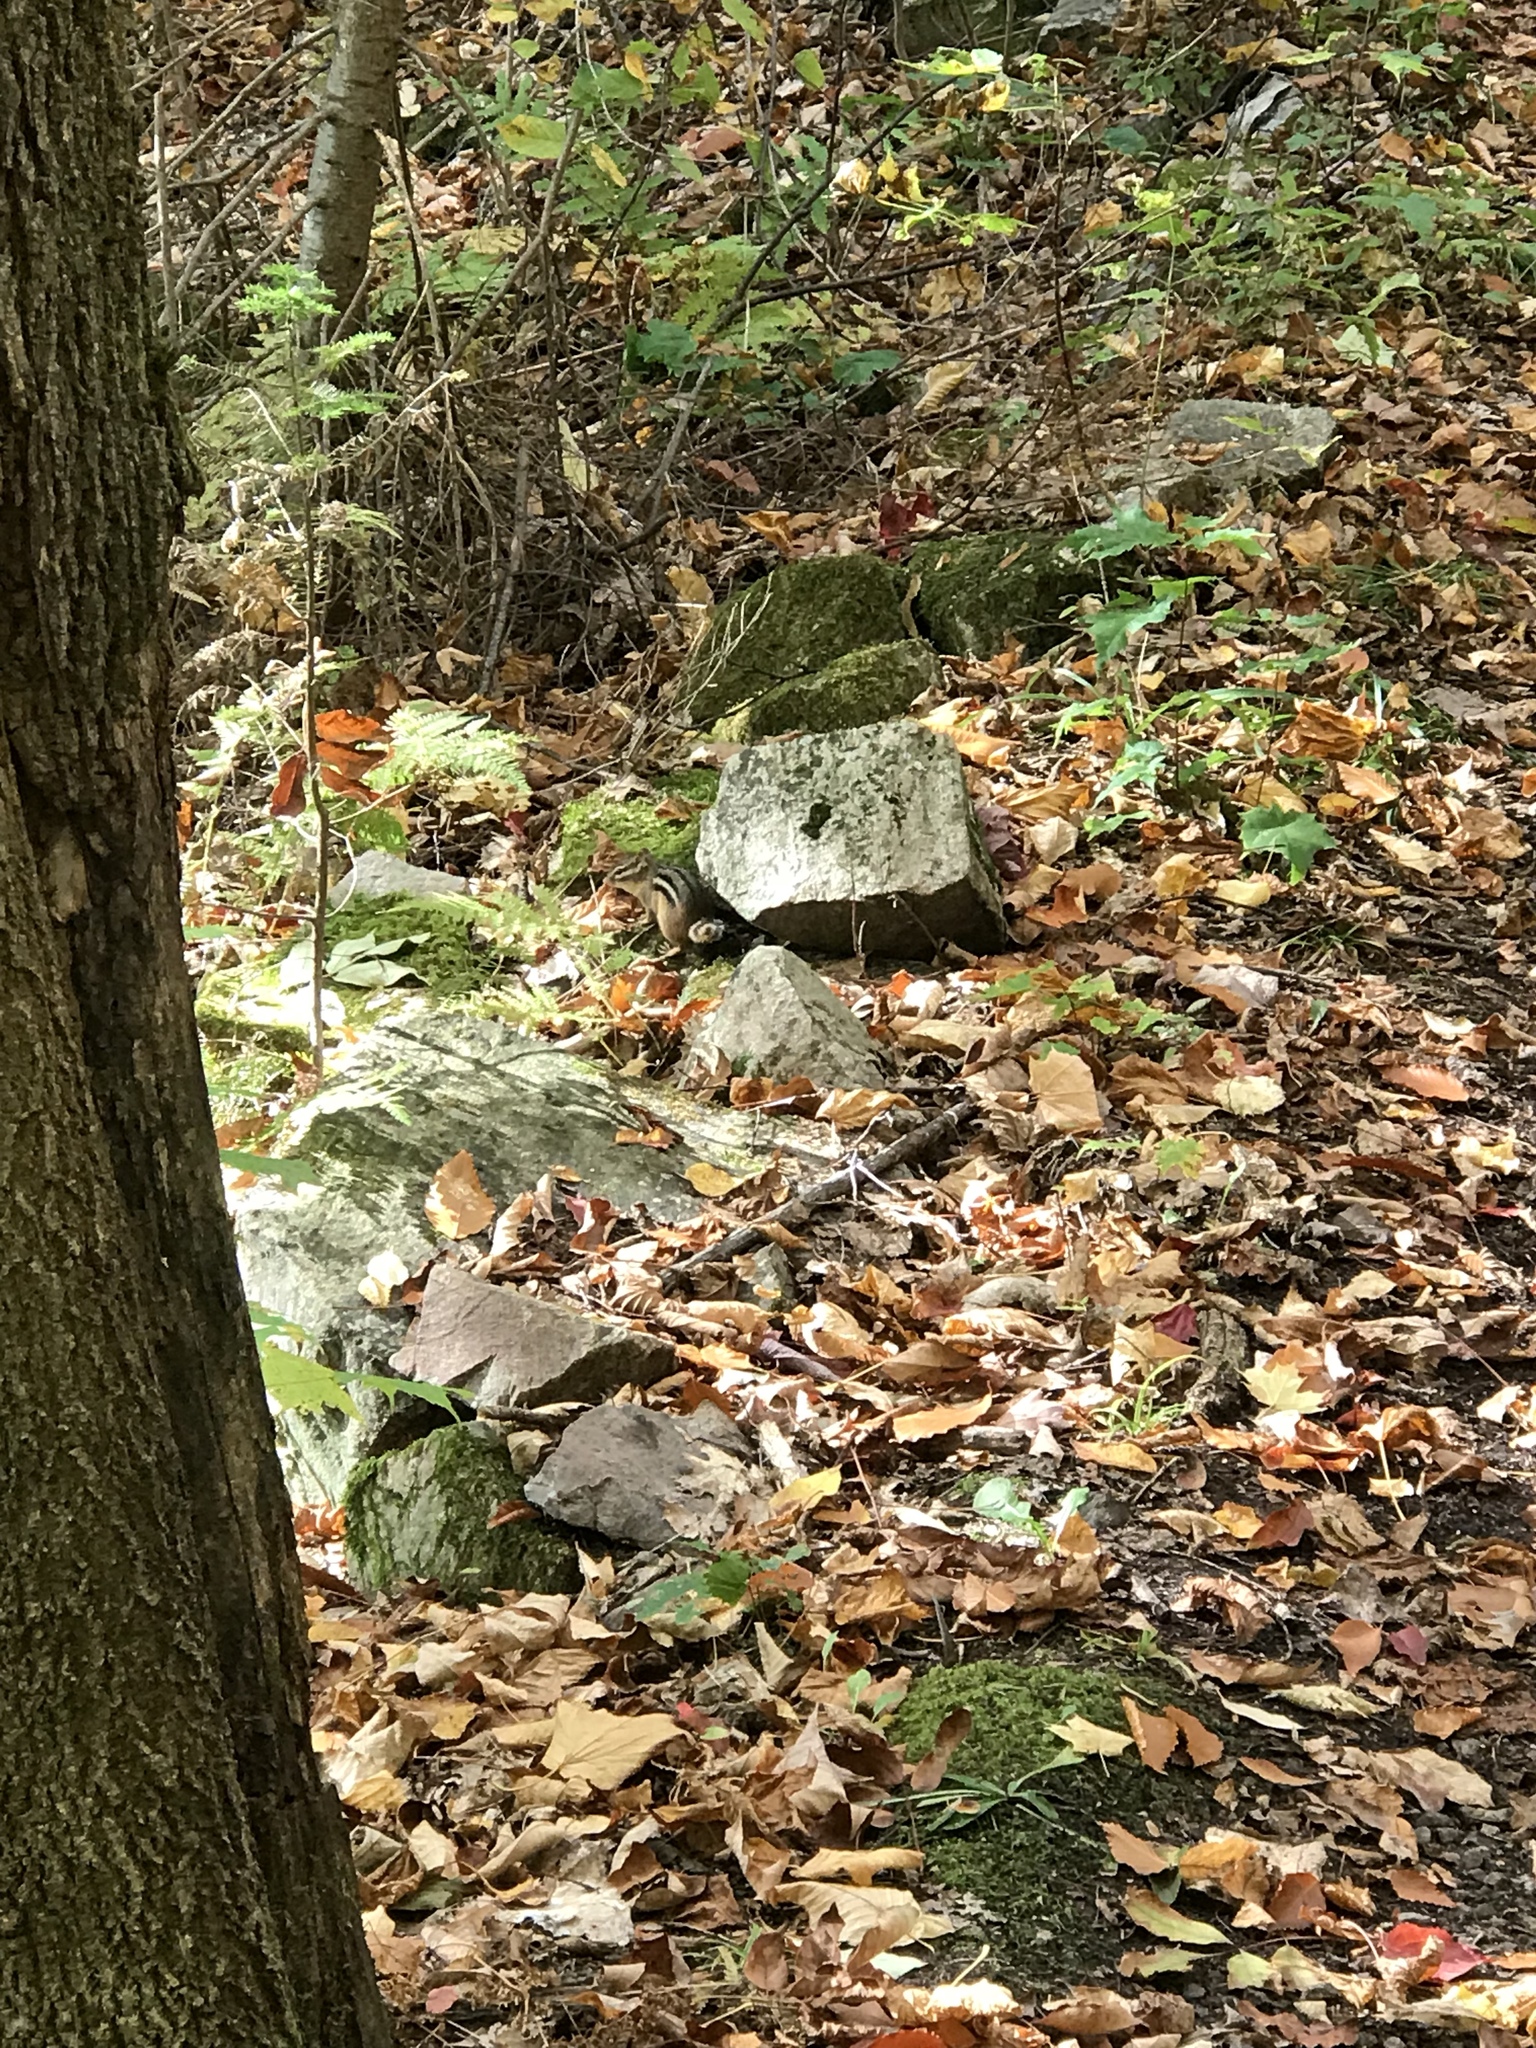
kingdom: Animalia
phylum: Chordata
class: Mammalia
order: Rodentia
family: Sciuridae
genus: Tamias
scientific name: Tamias striatus
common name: Eastern chipmunk
